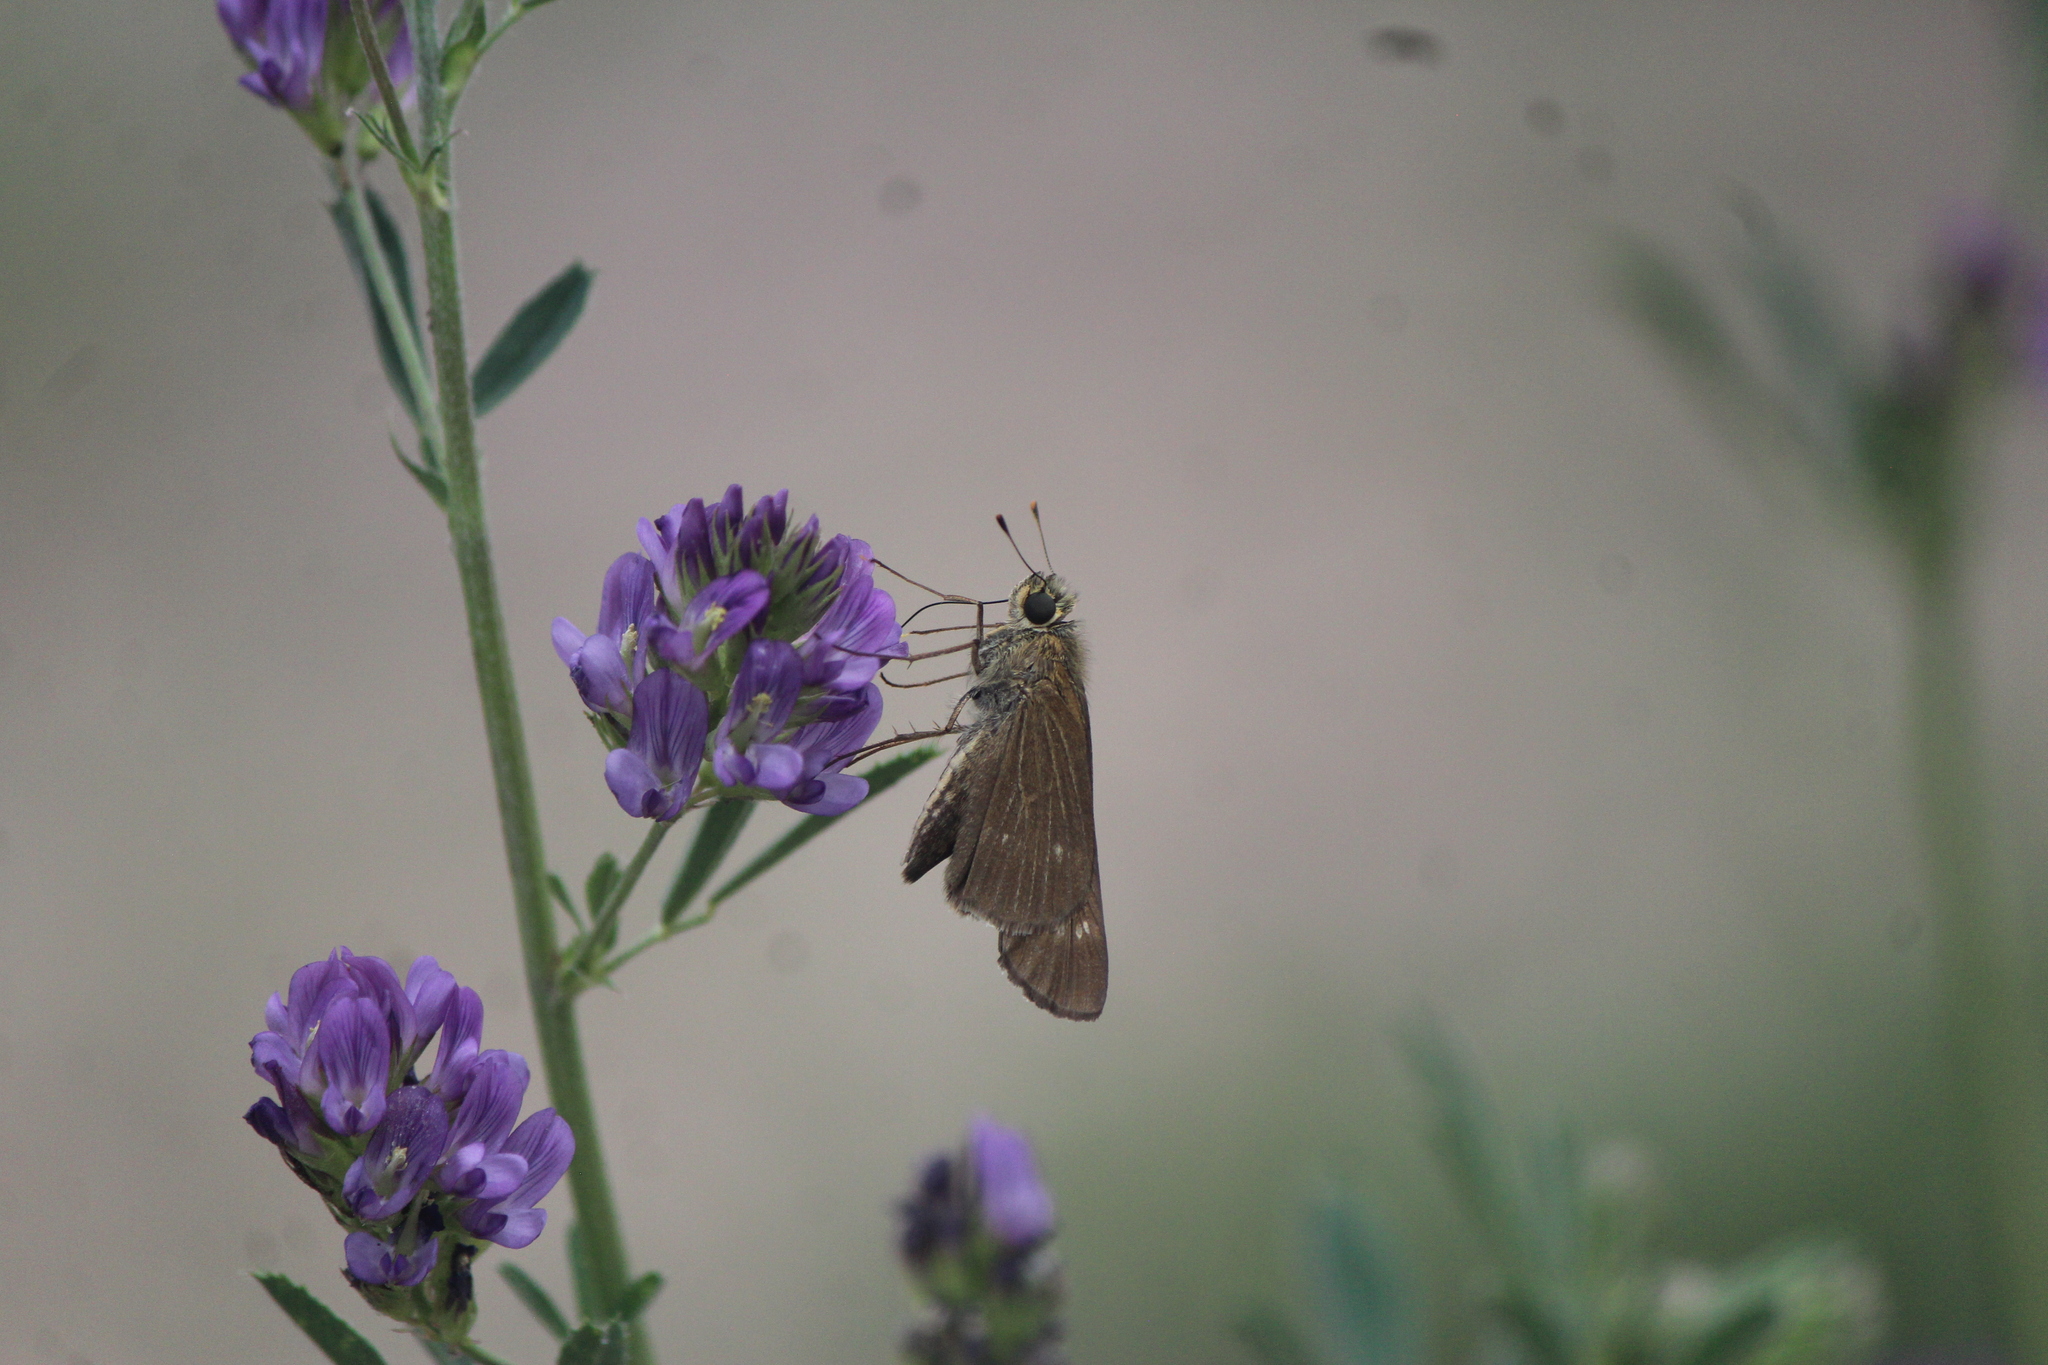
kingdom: Animalia
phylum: Arthropoda
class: Insecta
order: Lepidoptera
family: Hesperiidae
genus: Turesis
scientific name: Turesis lucas
